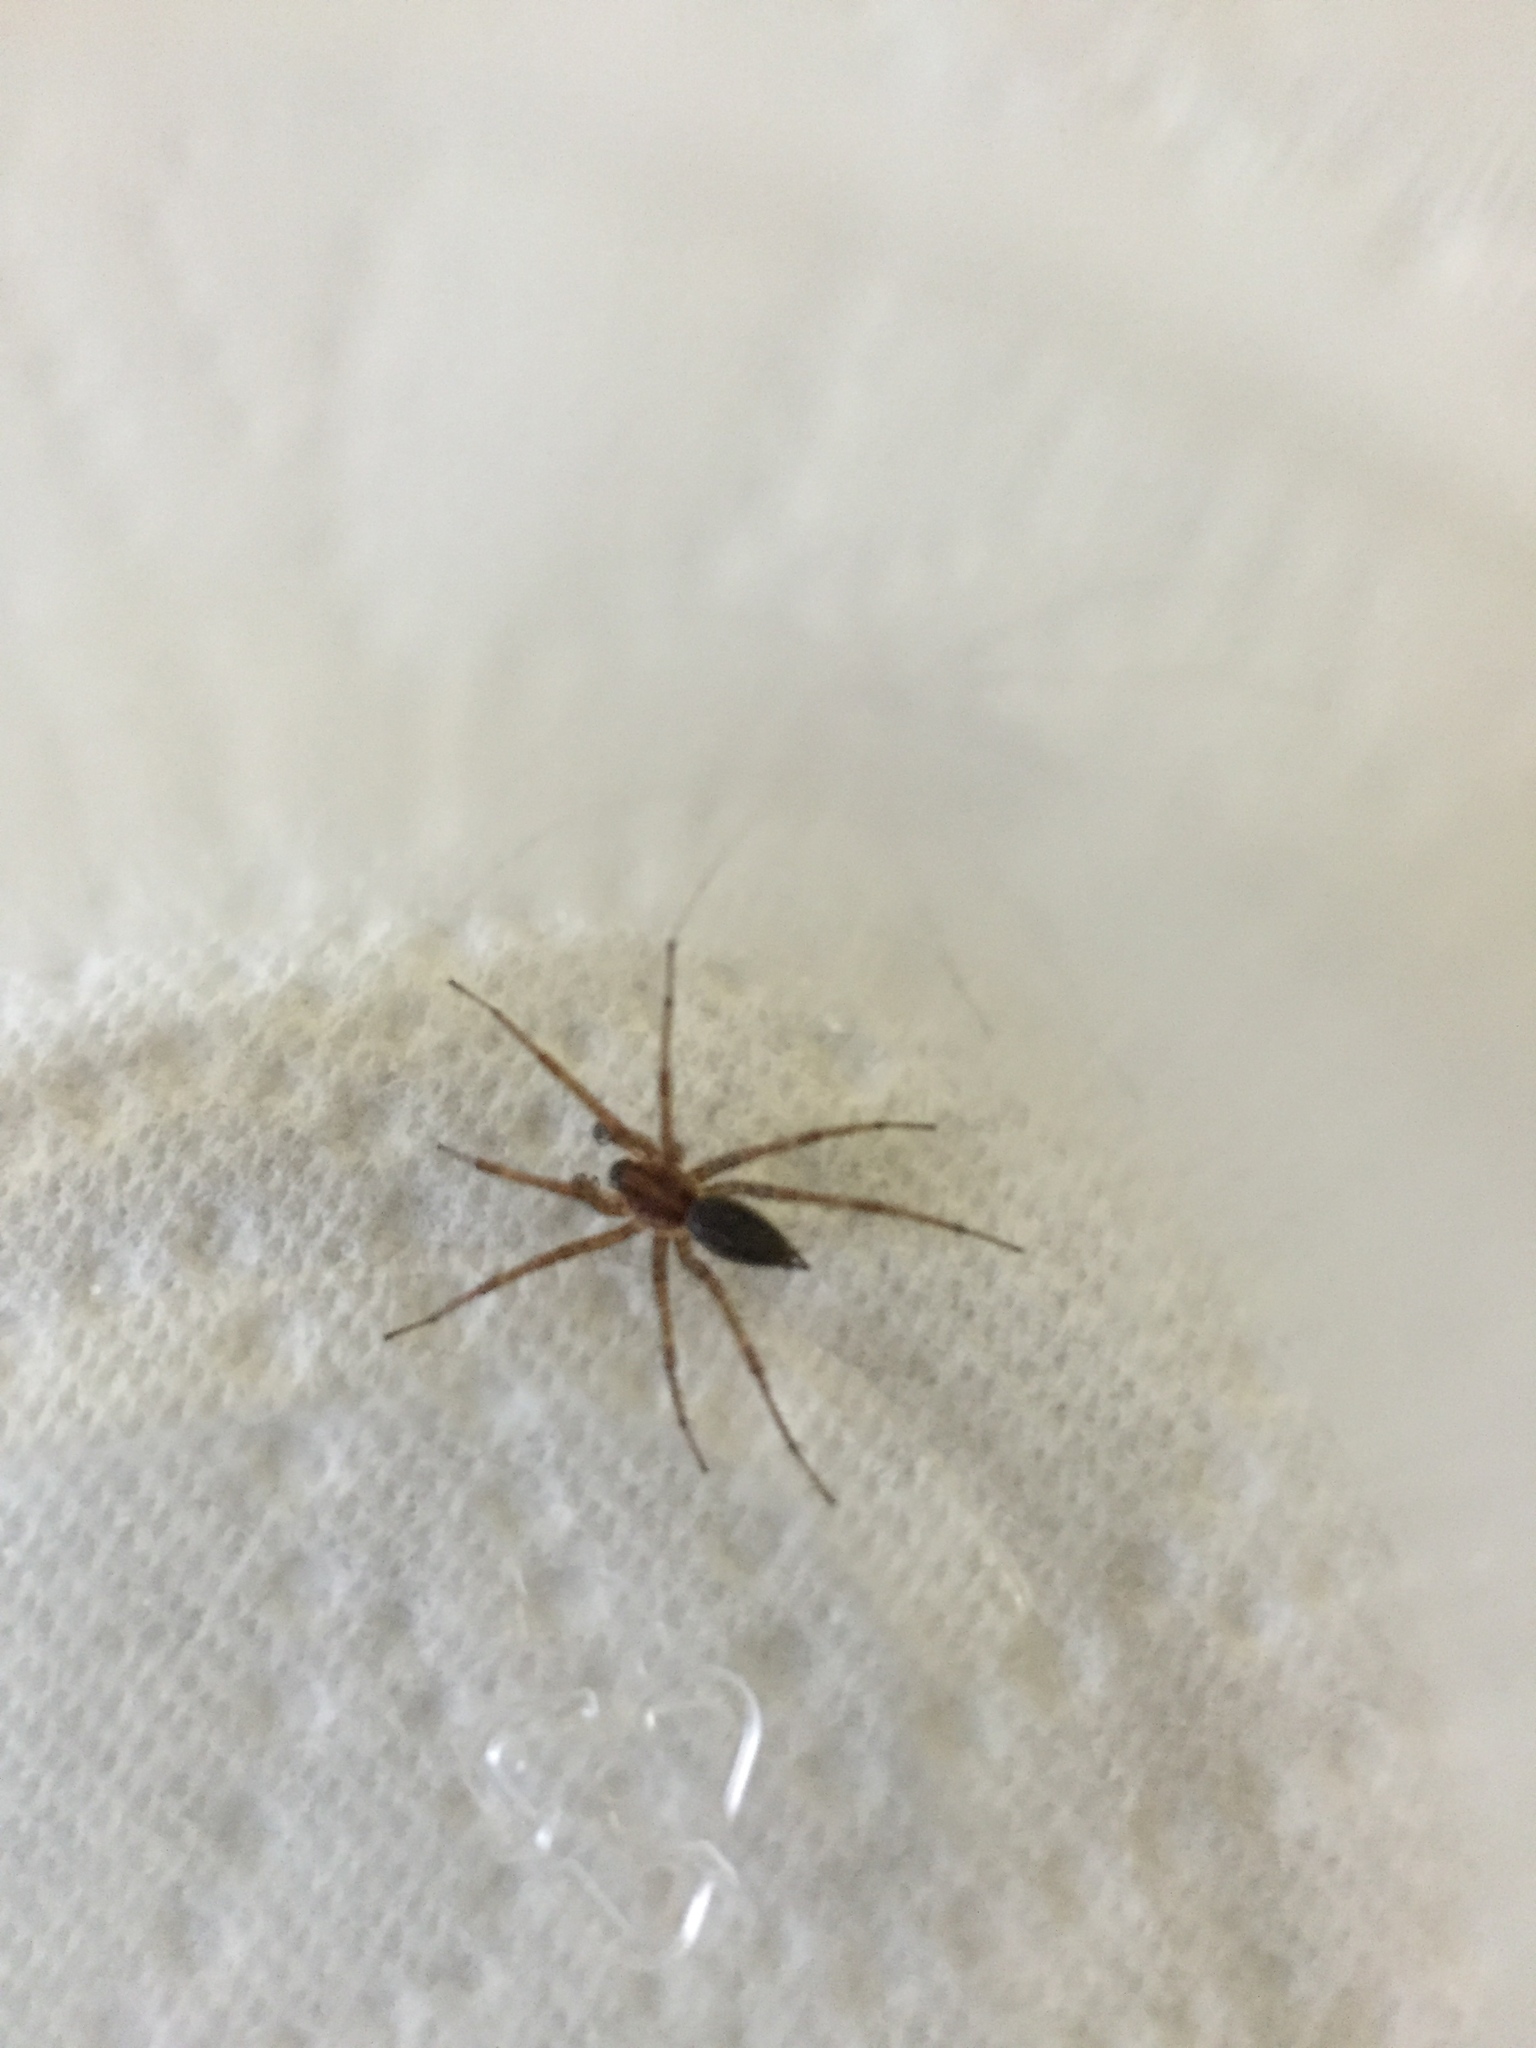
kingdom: Animalia
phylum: Arthropoda
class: Arachnida
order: Araneae
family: Agelenidae
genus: Agelenopsis
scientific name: Agelenopsis utahana
